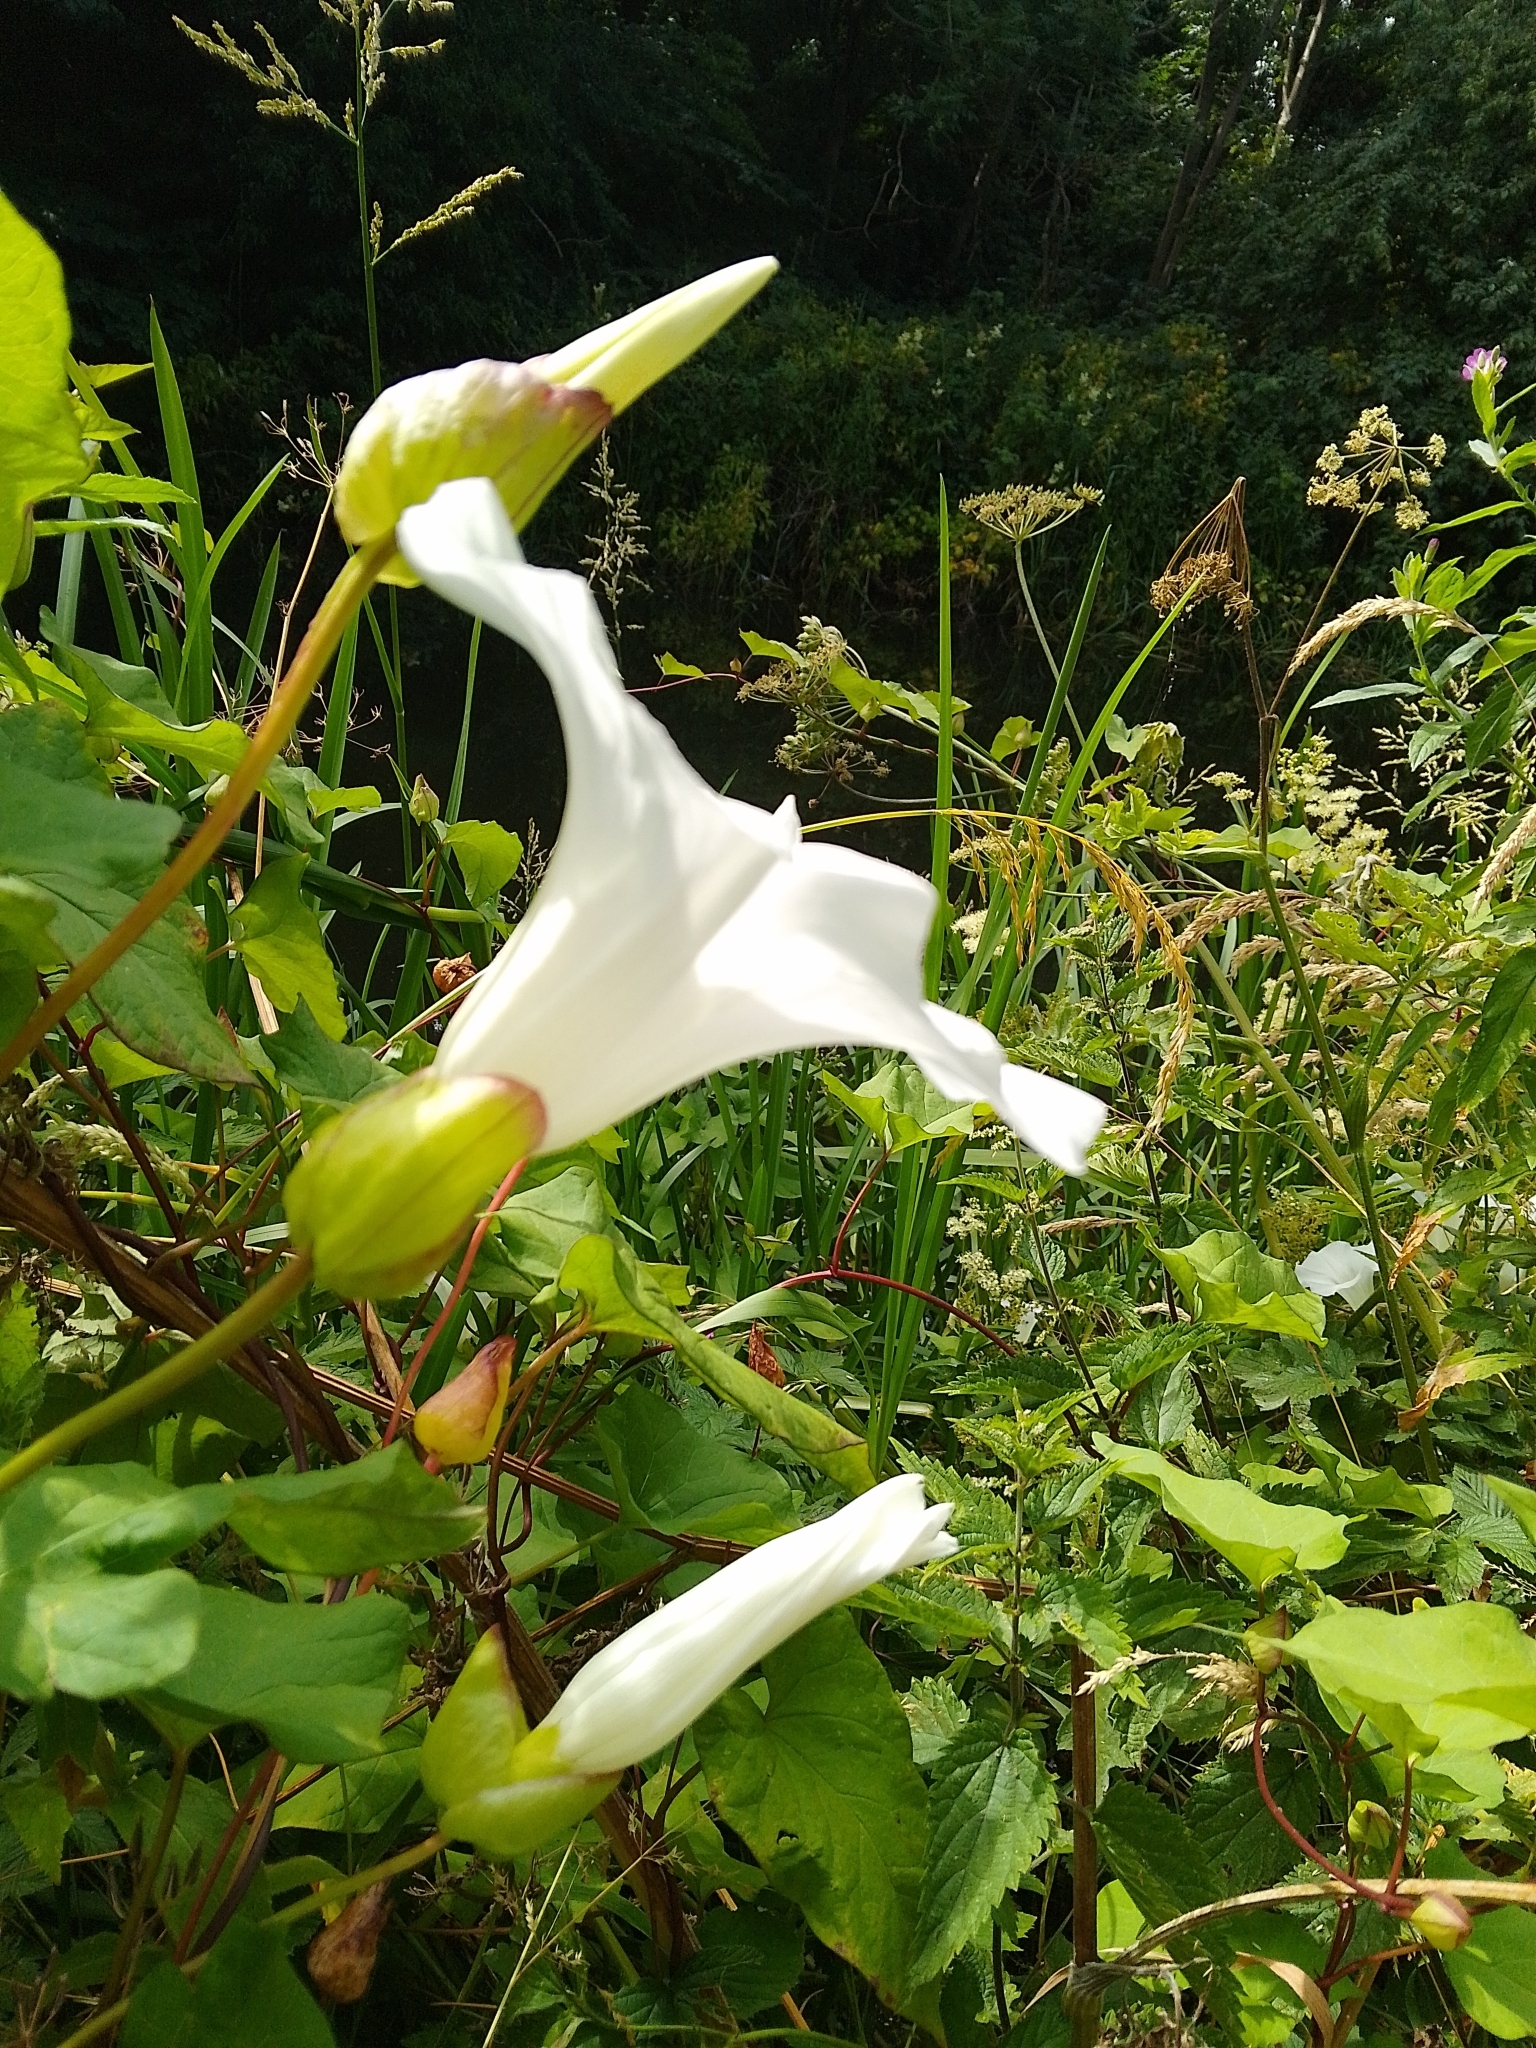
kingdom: Plantae
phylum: Tracheophyta
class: Magnoliopsida
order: Solanales
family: Convolvulaceae
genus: Calystegia
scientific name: Calystegia silvatica
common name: Large bindweed
